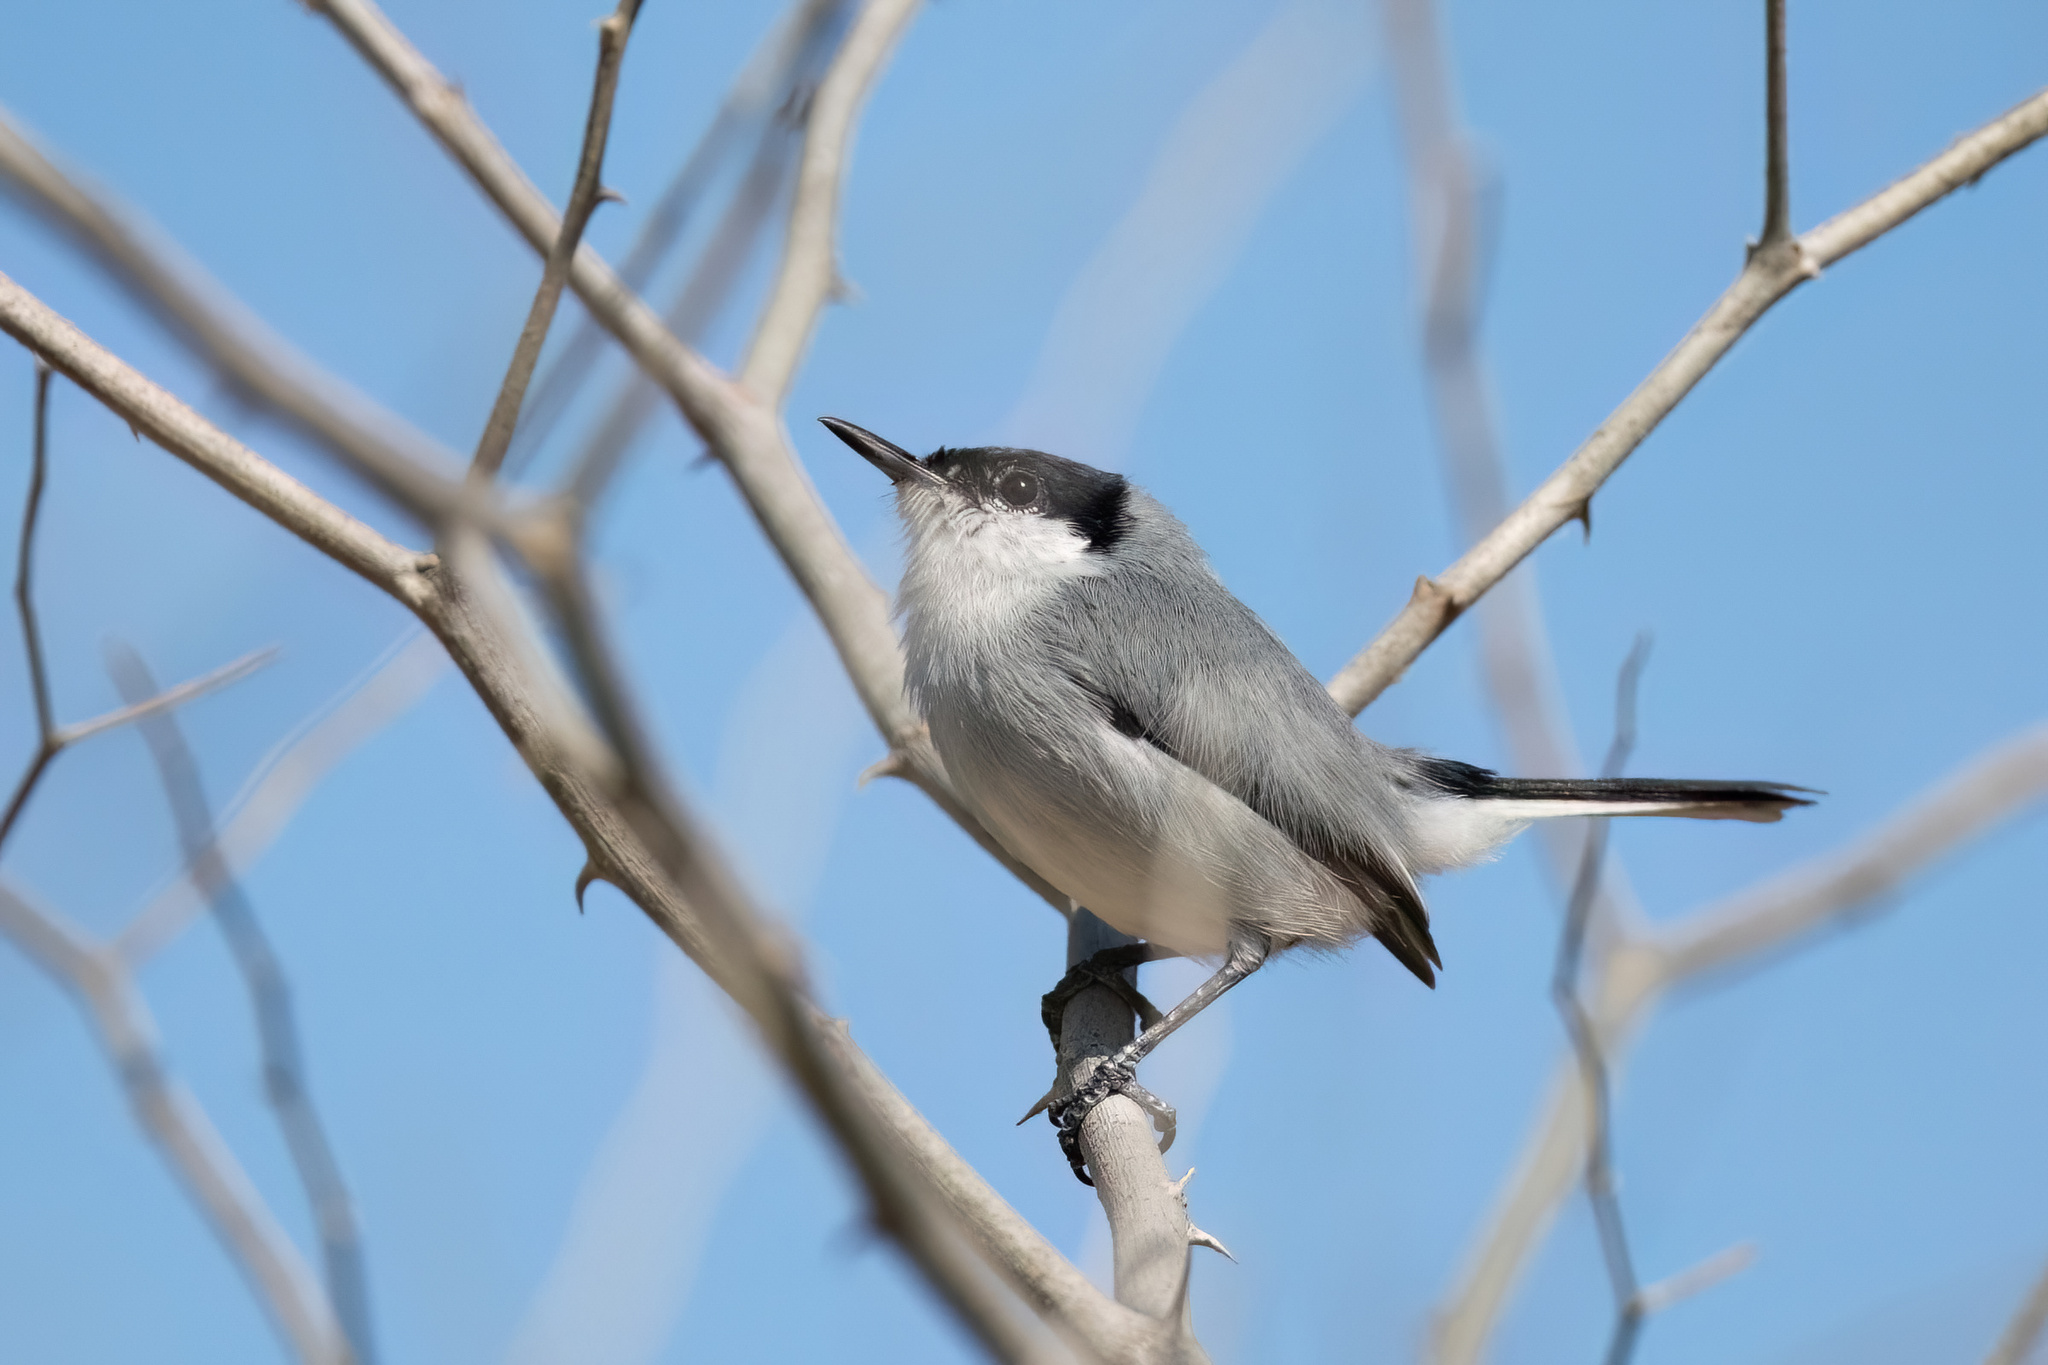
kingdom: Animalia
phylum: Chordata
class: Aves
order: Passeriformes
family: Polioptilidae
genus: Polioptila
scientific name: Polioptila albiloris
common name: White-lored gnatcatcher
